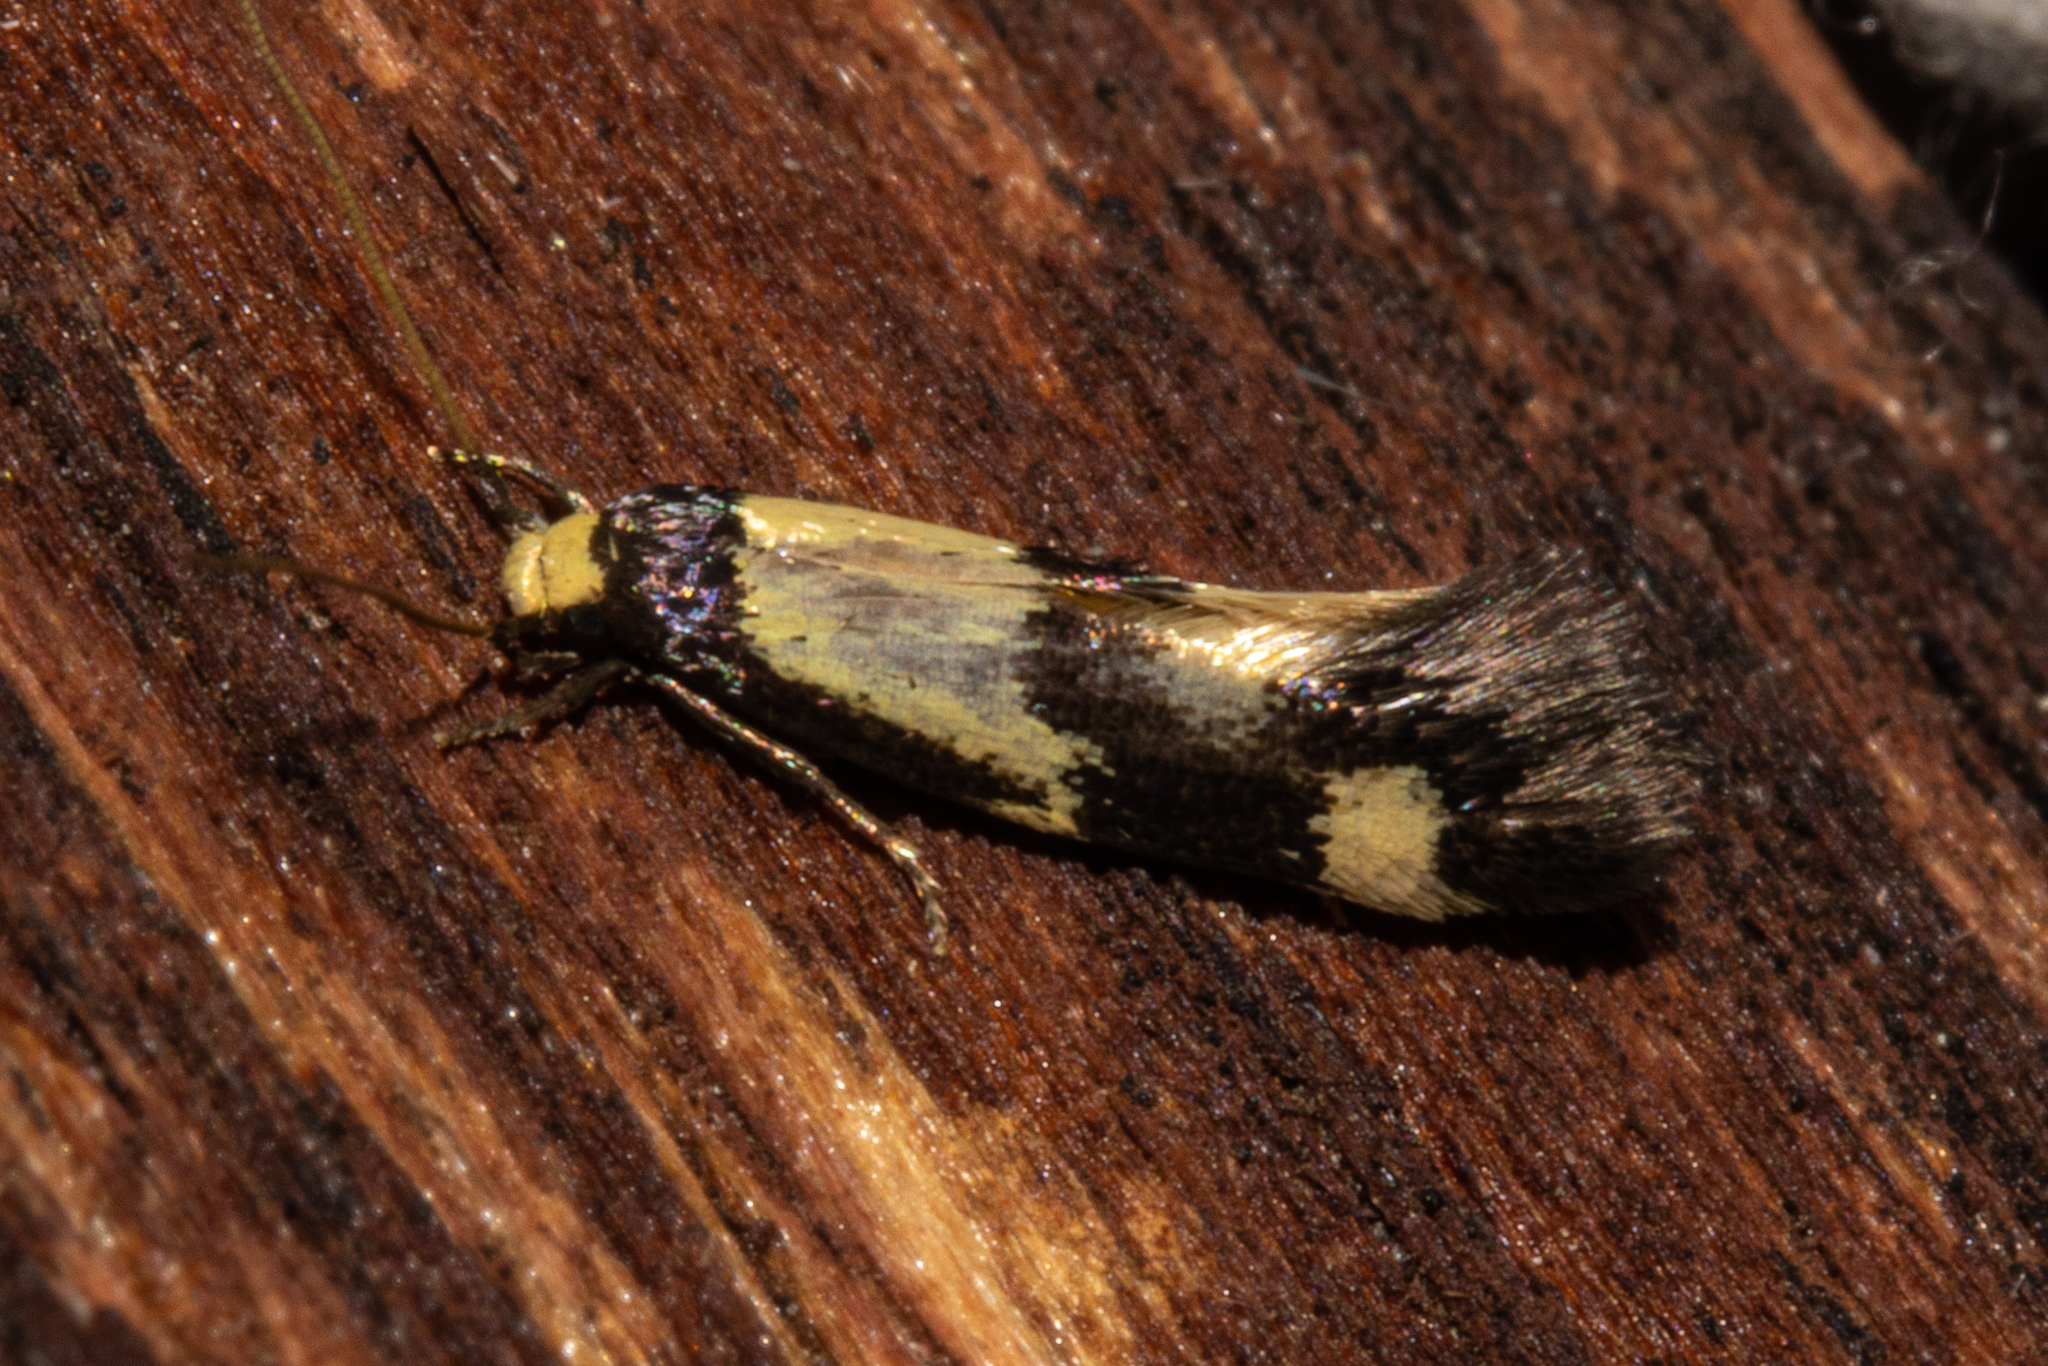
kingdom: Animalia
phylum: Arthropoda
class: Insecta
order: Lepidoptera
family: Tineidae
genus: Opogona
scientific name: Opogona comptella
